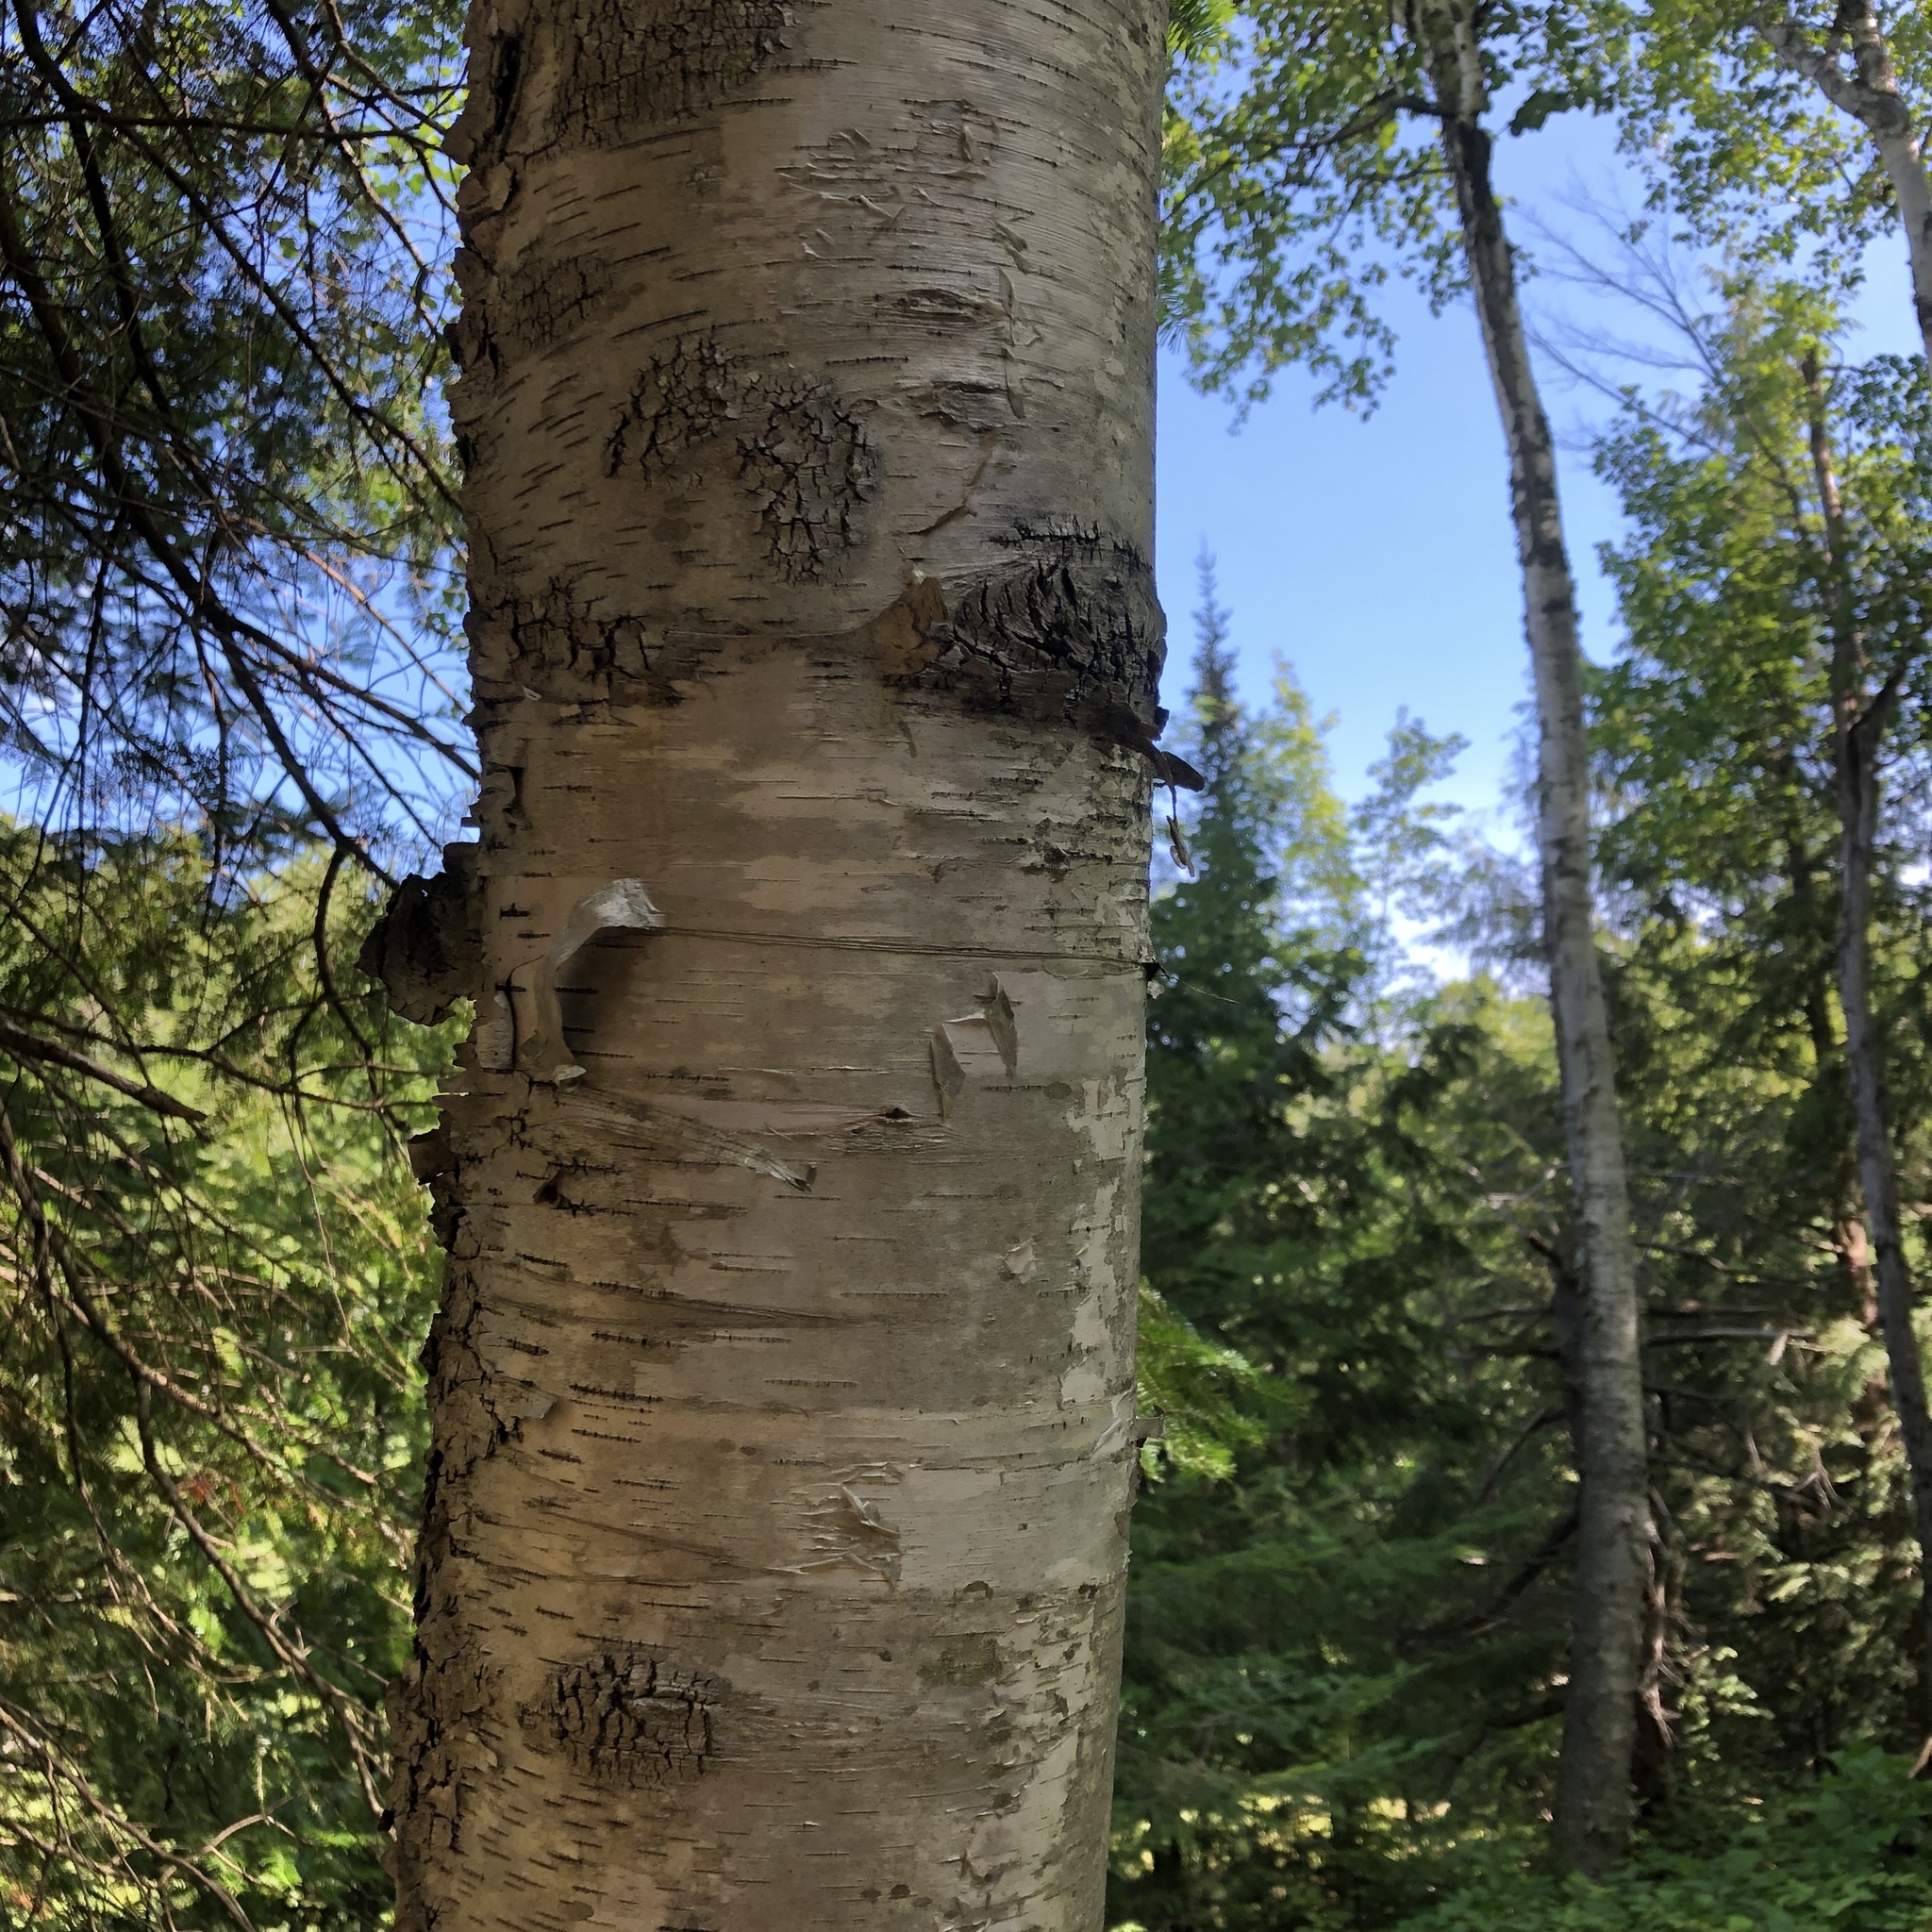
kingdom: Plantae
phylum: Tracheophyta
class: Magnoliopsida
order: Fagales
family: Betulaceae
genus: Betula
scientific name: Betula papyrifera
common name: Paper birch
